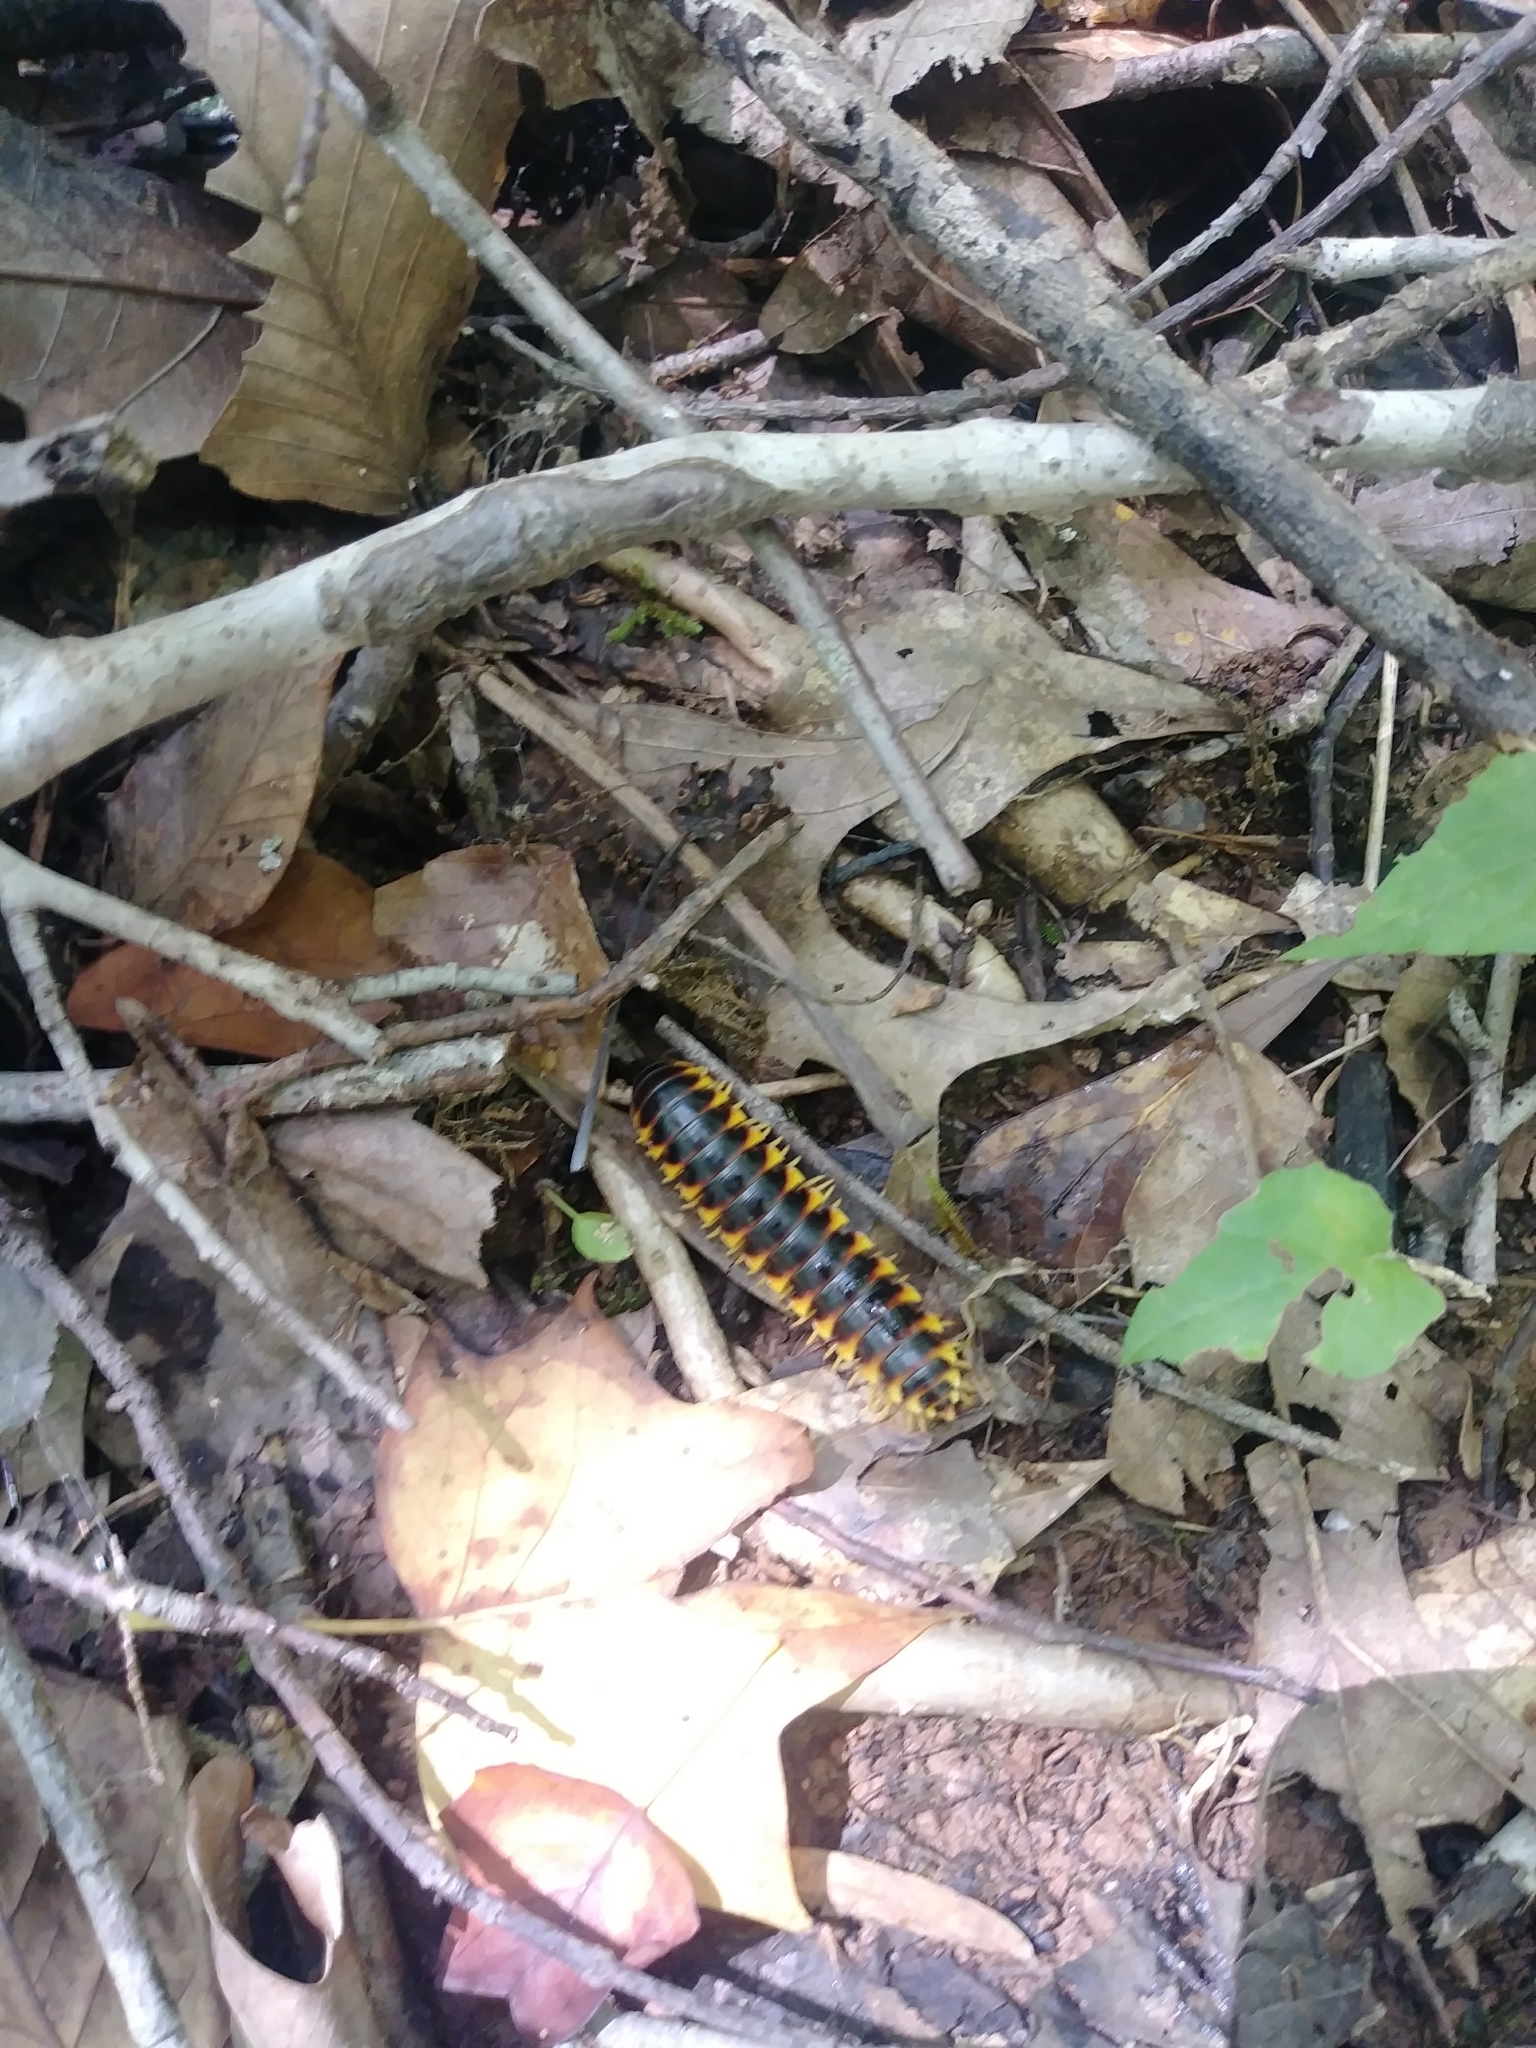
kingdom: Animalia
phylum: Arthropoda
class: Diplopoda
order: Polydesmida
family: Xystodesmidae
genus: Apheloria
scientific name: Apheloria virginiensis
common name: Black-and-gold flat millipede
